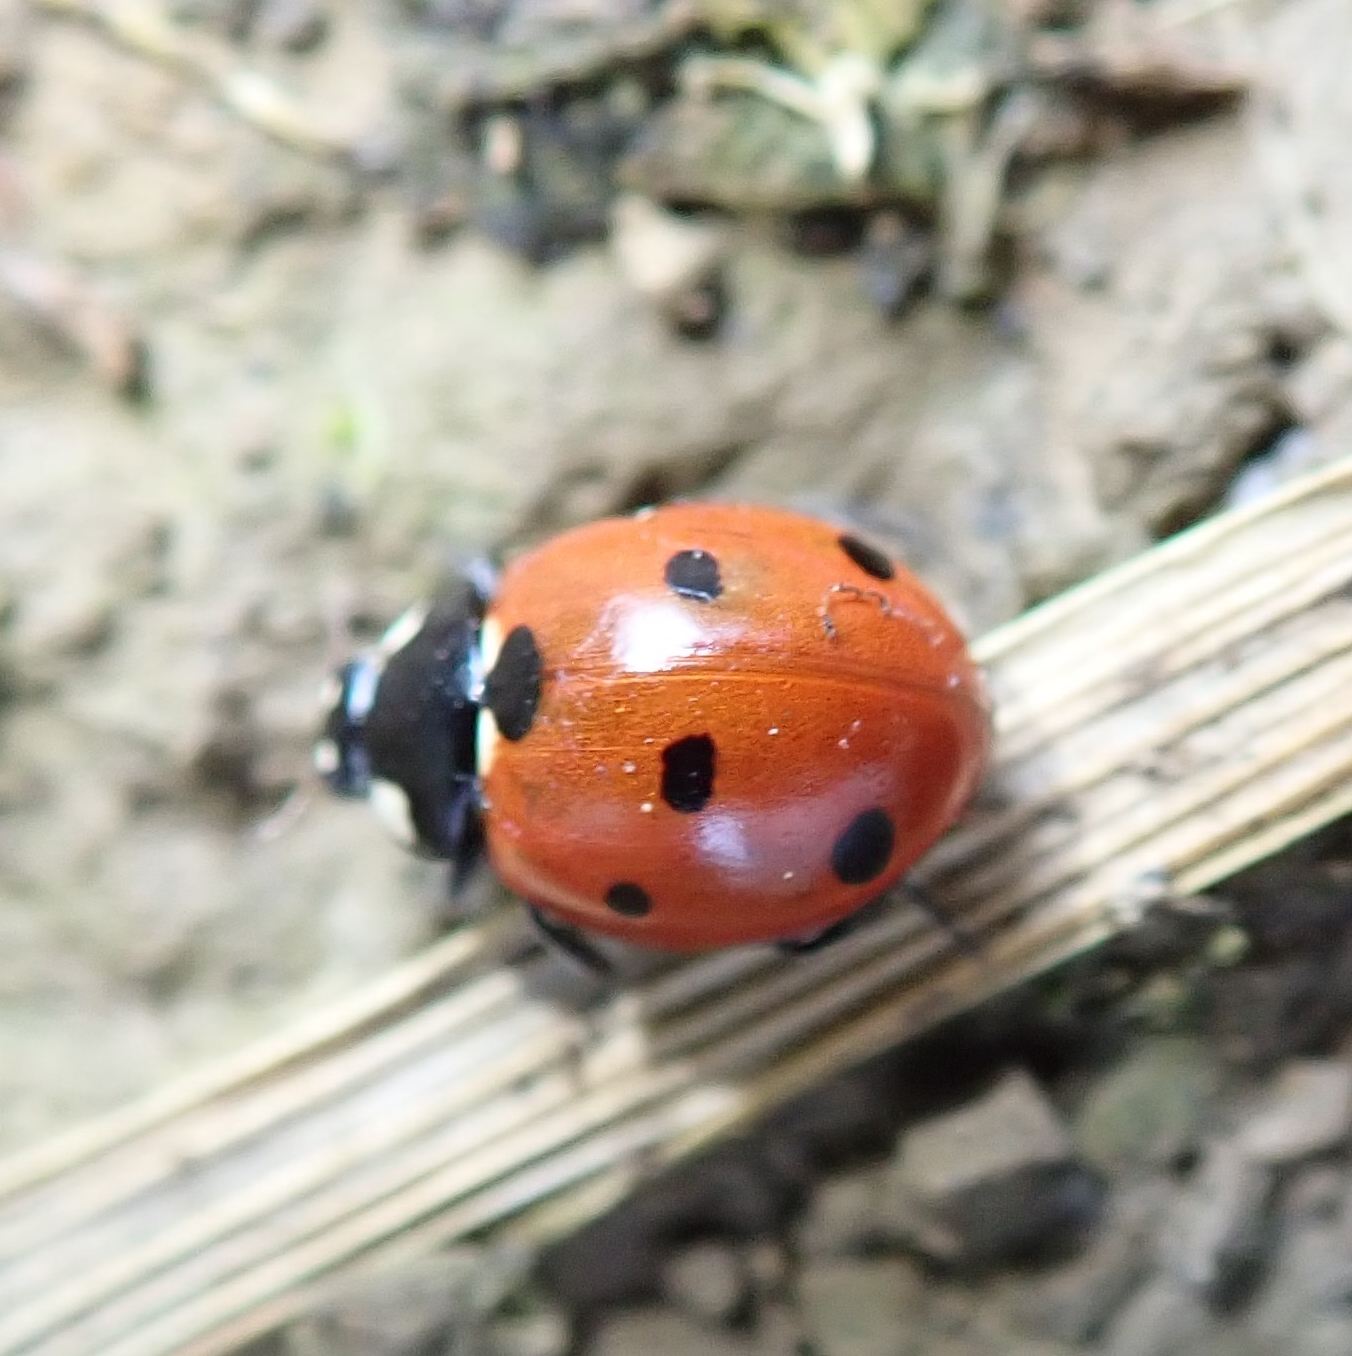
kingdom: Animalia
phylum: Arthropoda
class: Insecta
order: Coleoptera
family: Coccinellidae
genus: Coccinella
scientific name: Coccinella septempunctata
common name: Sevenspotted lady beetle
